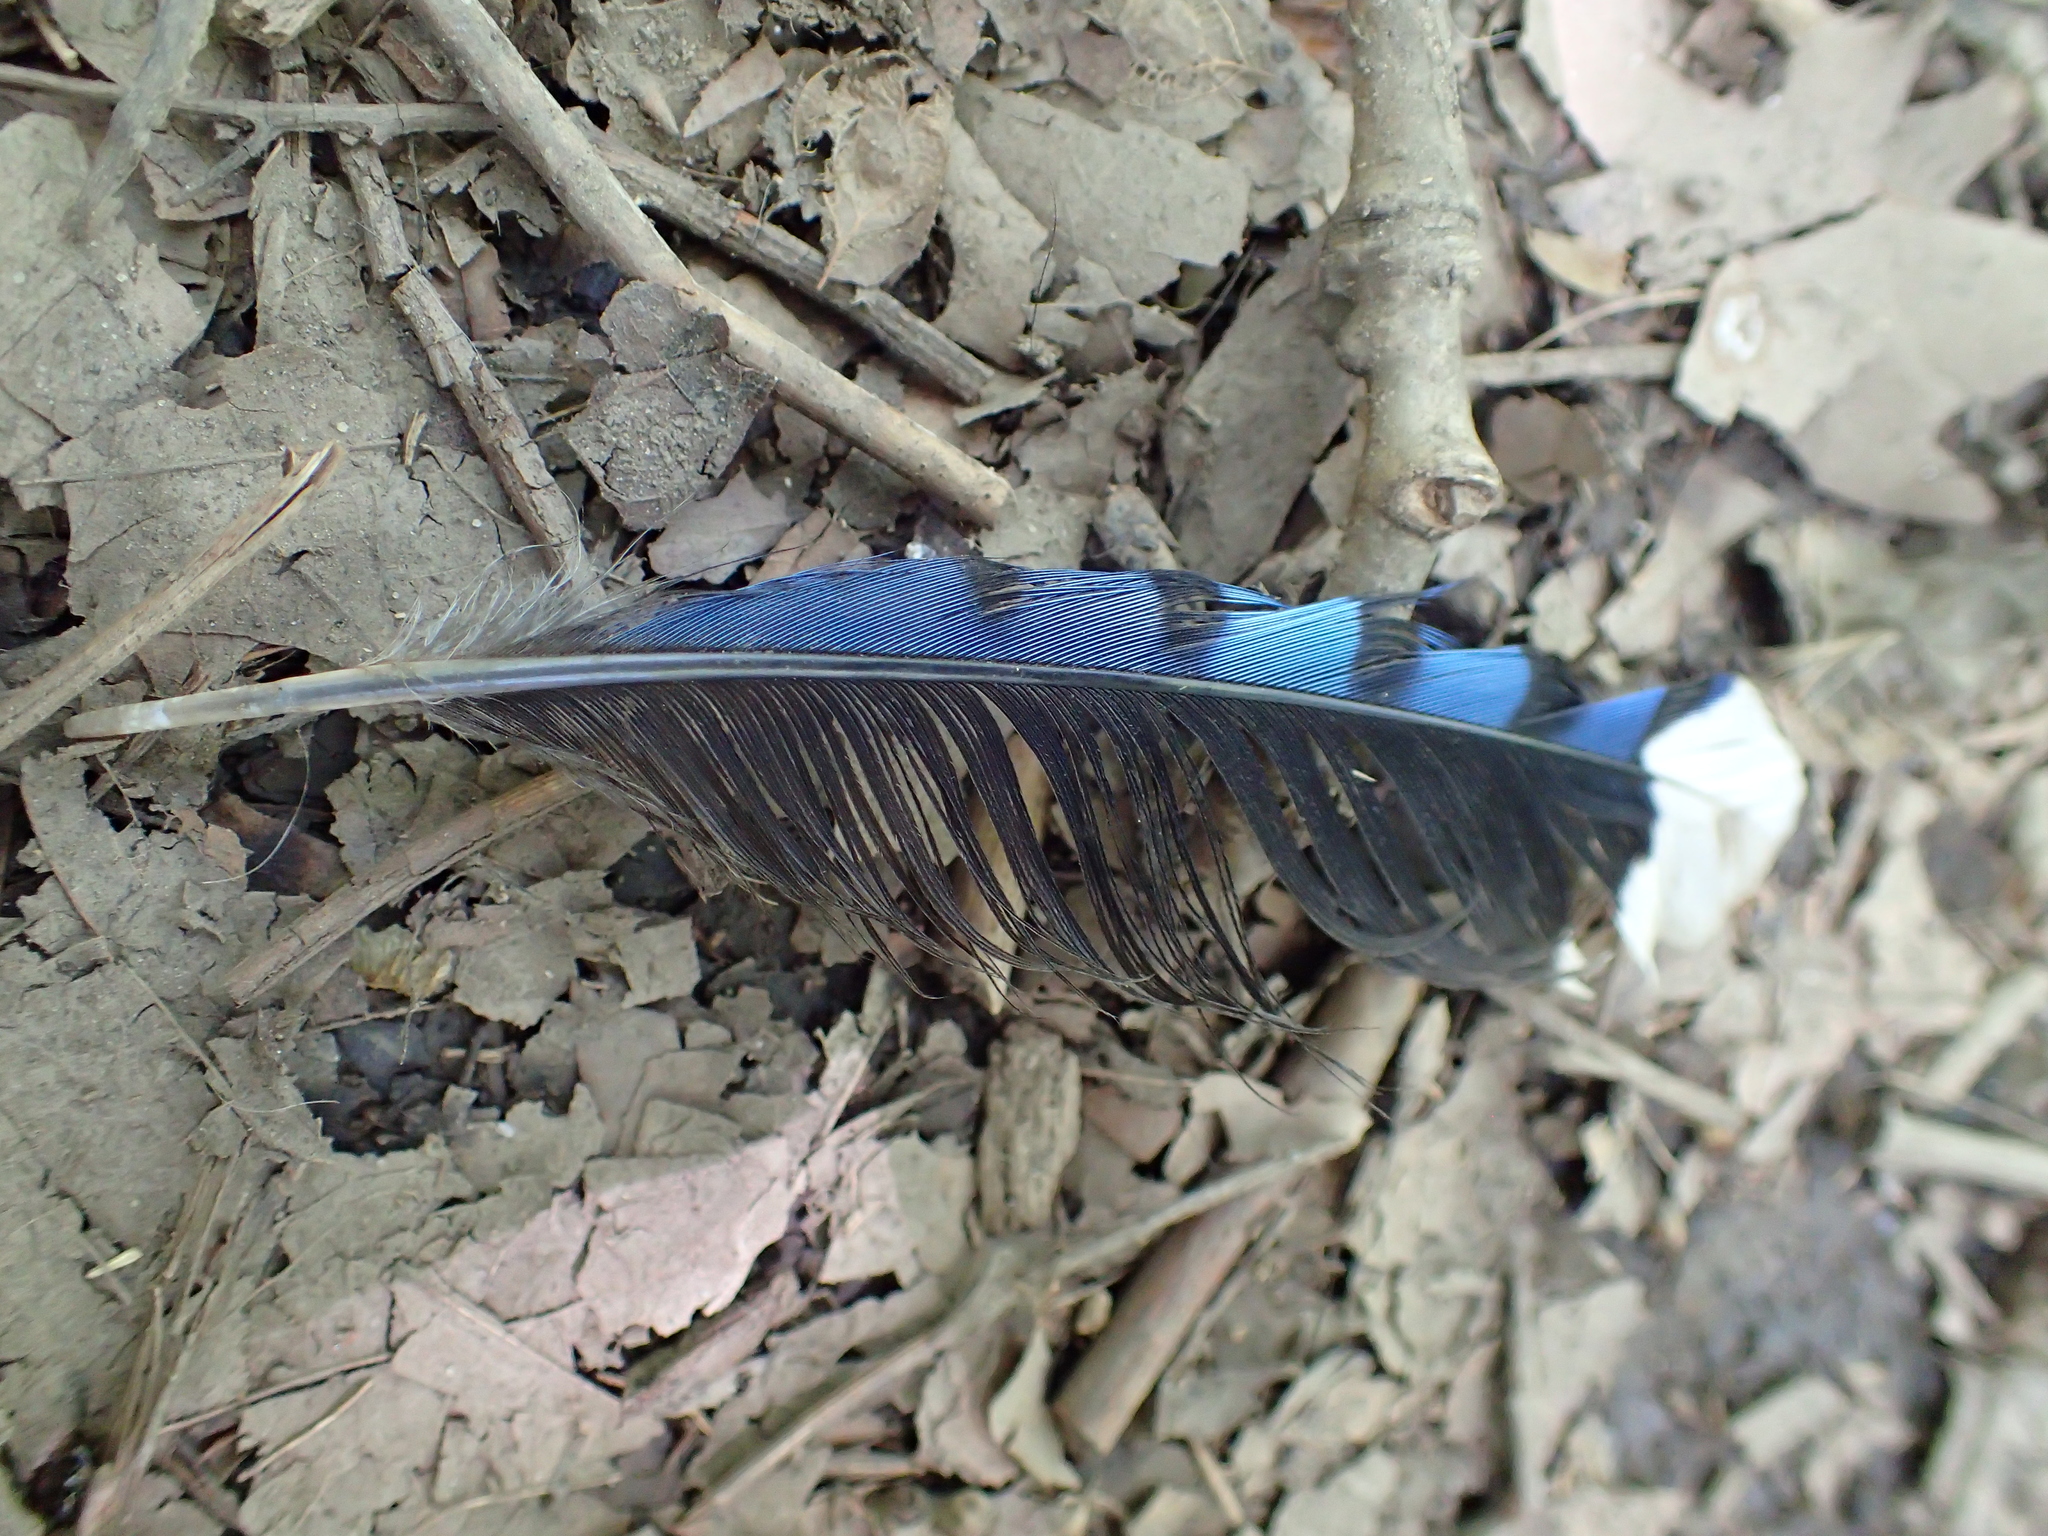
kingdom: Animalia
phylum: Chordata
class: Aves
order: Passeriformes
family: Corvidae
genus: Cyanocitta
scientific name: Cyanocitta cristata
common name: Blue jay
